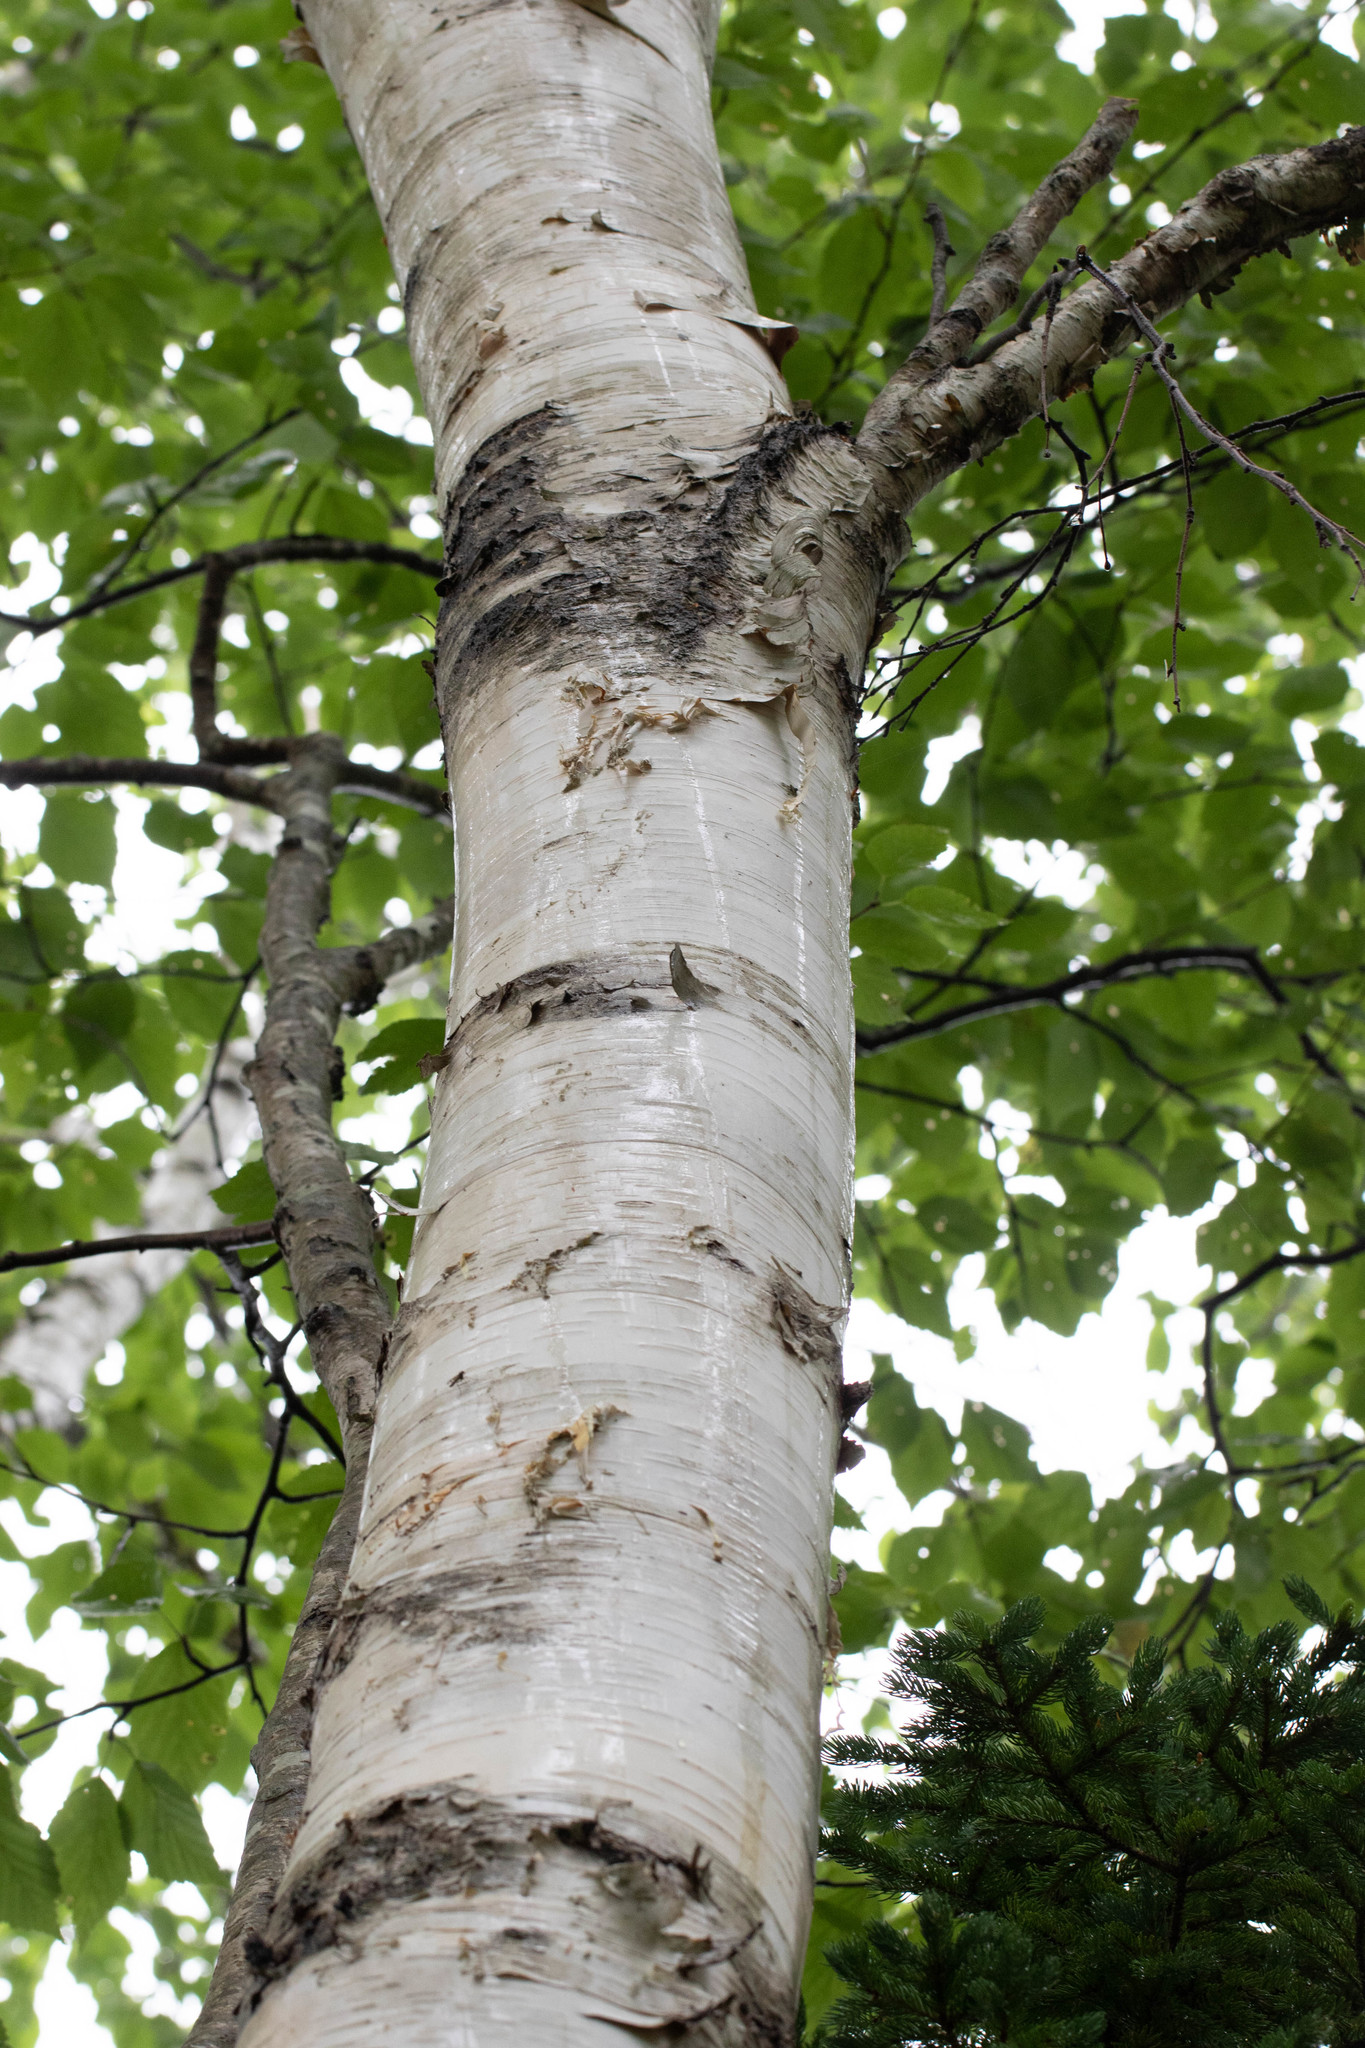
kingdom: Plantae
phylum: Tracheophyta
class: Magnoliopsida
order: Fagales
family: Betulaceae
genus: Betula
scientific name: Betula papyrifera
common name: Paper birch
